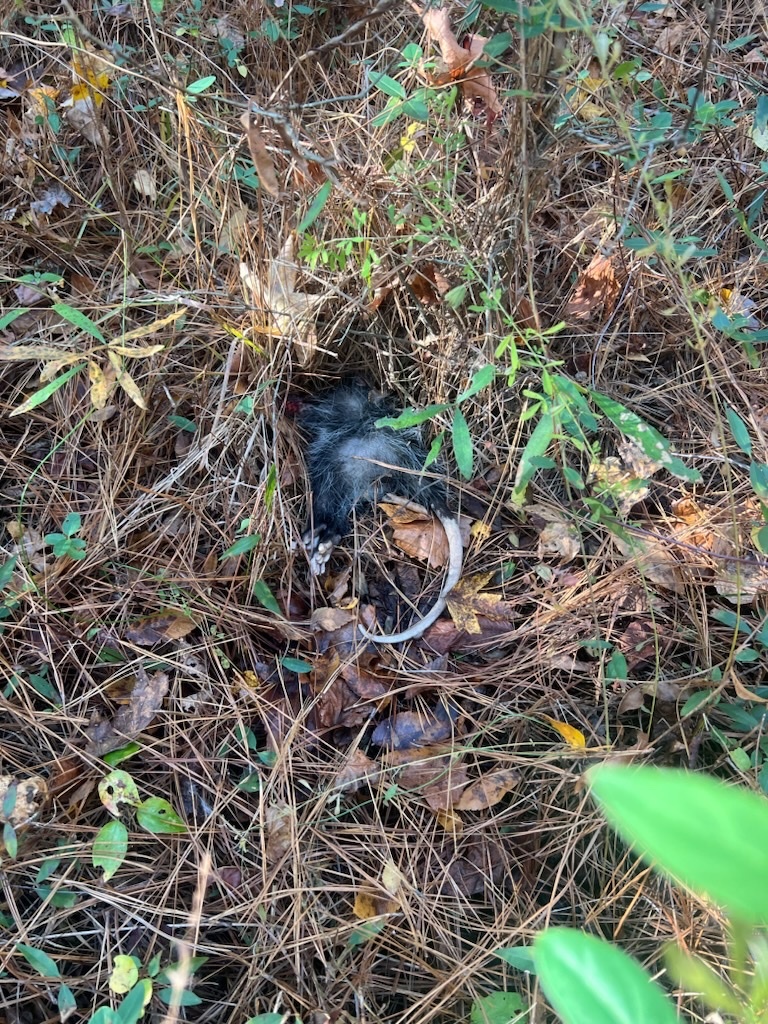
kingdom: Animalia
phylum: Chordata
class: Mammalia
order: Didelphimorphia
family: Didelphidae
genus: Didelphis
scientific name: Didelphis virginiana
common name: Virginia opossum
